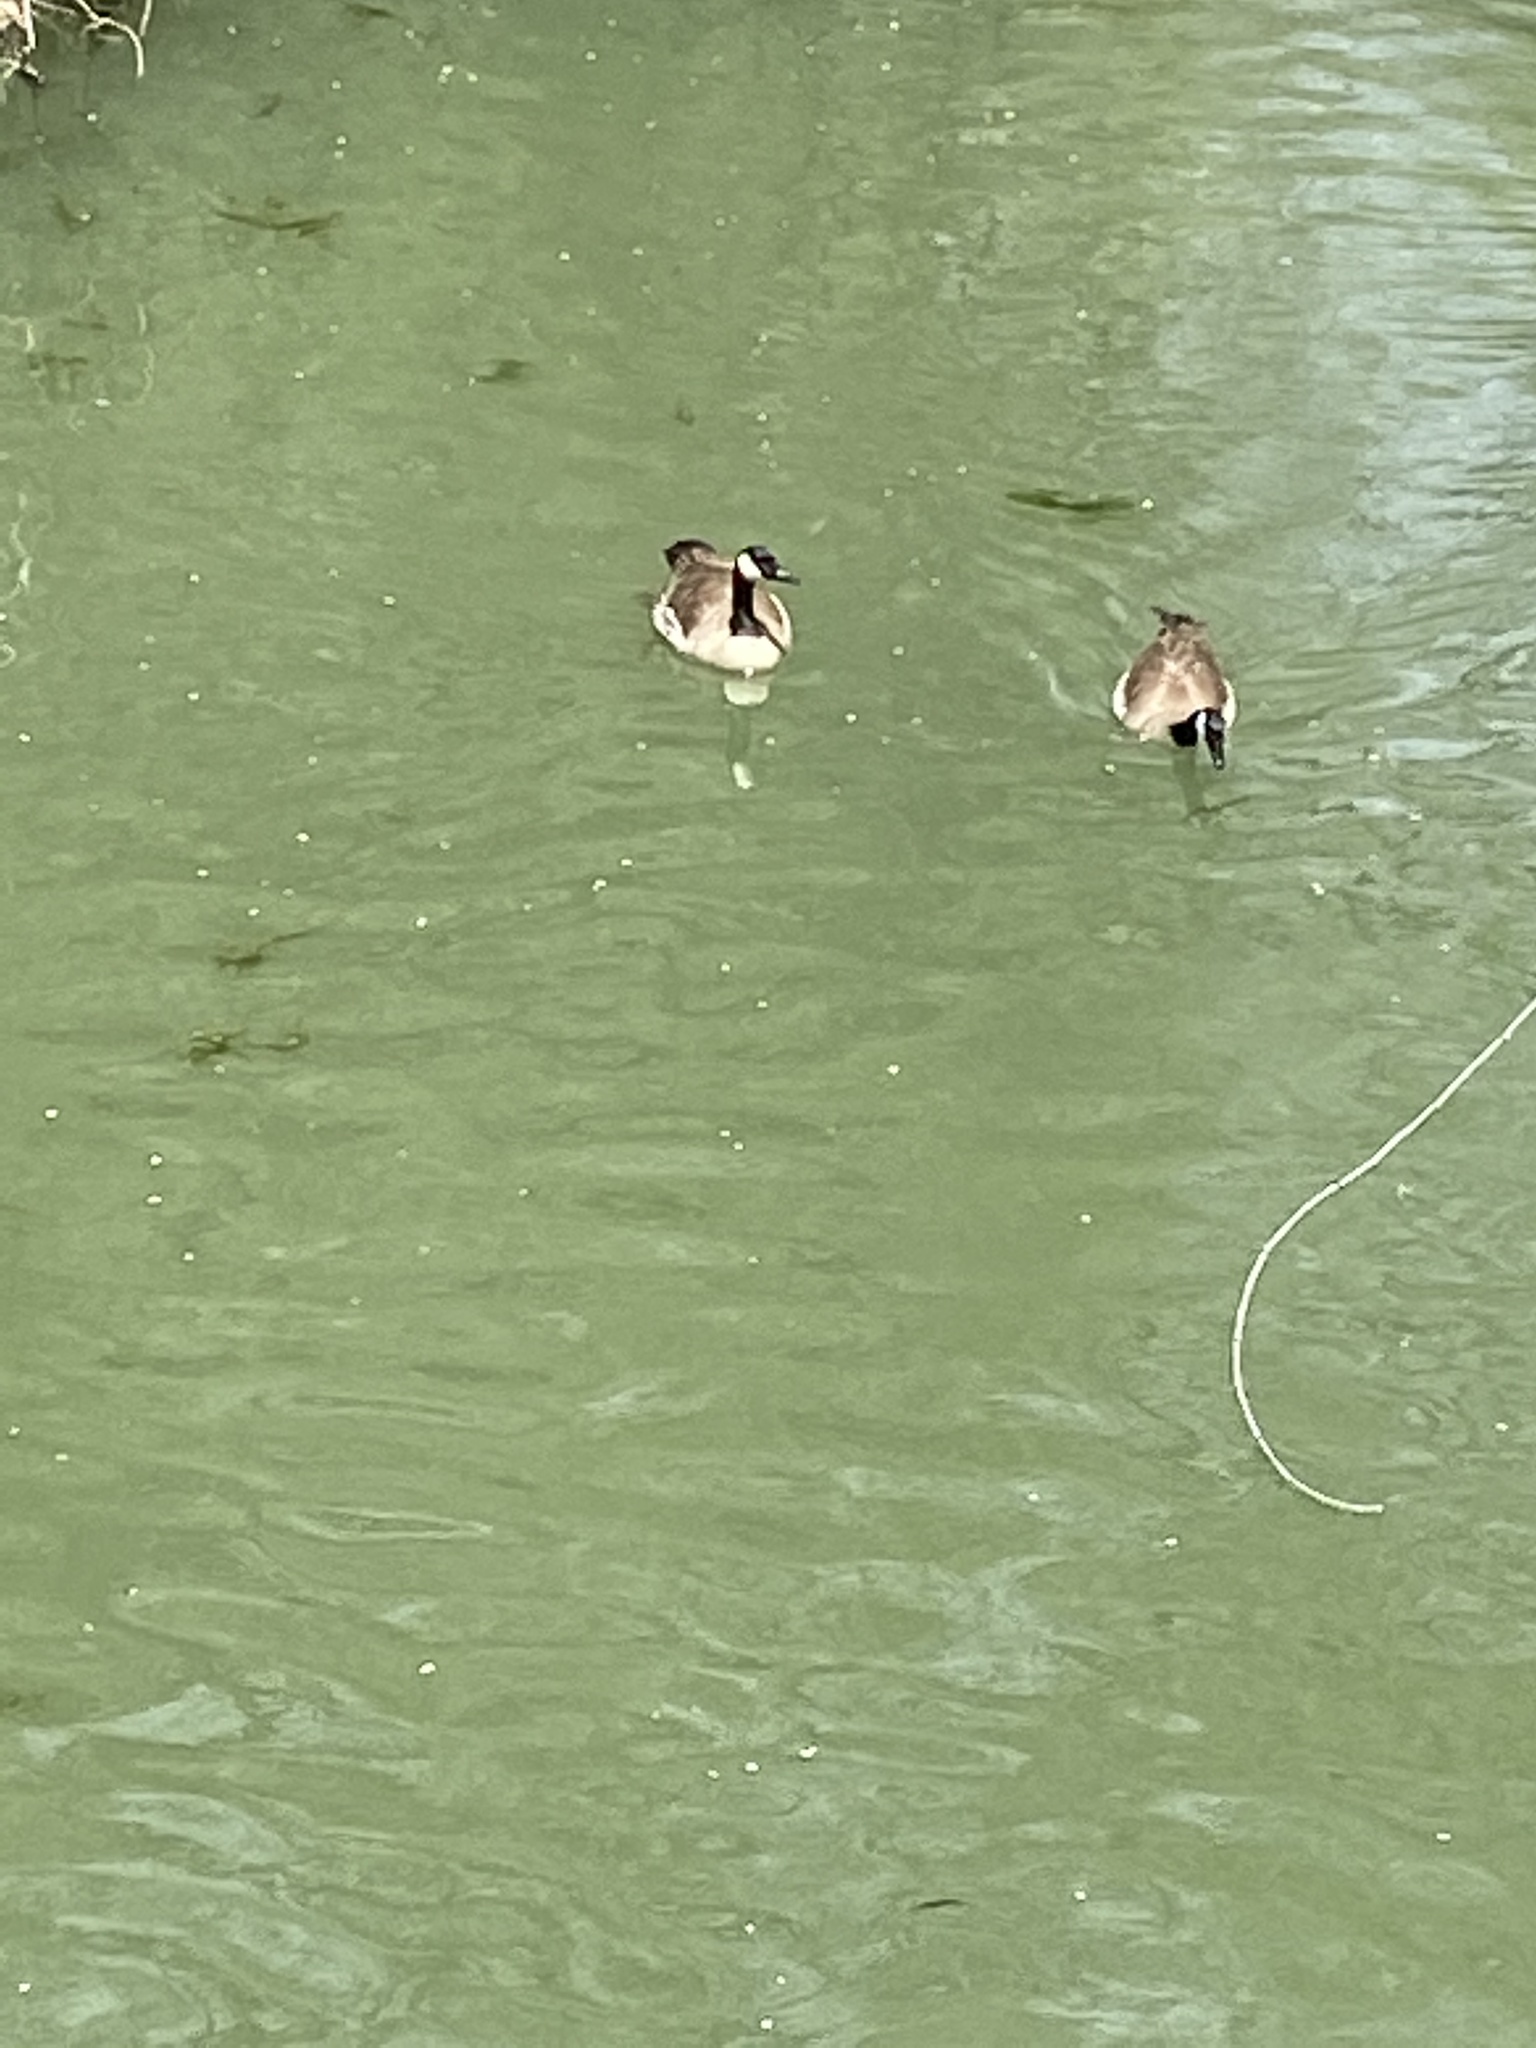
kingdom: Animalia
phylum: Chordata
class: Aves
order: Anseriformes
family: Anatidae
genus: Branta
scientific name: Branta canadensis
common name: Canada goose
